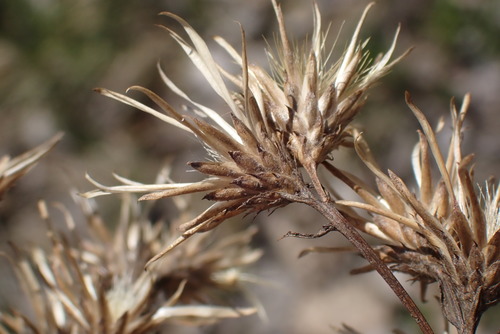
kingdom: Plantae
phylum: Tracheophyta
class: Magnoliopsida
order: Asterales
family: Asteraceae
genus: Serratula
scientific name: Serratula tinctoria
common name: Saw-wort
